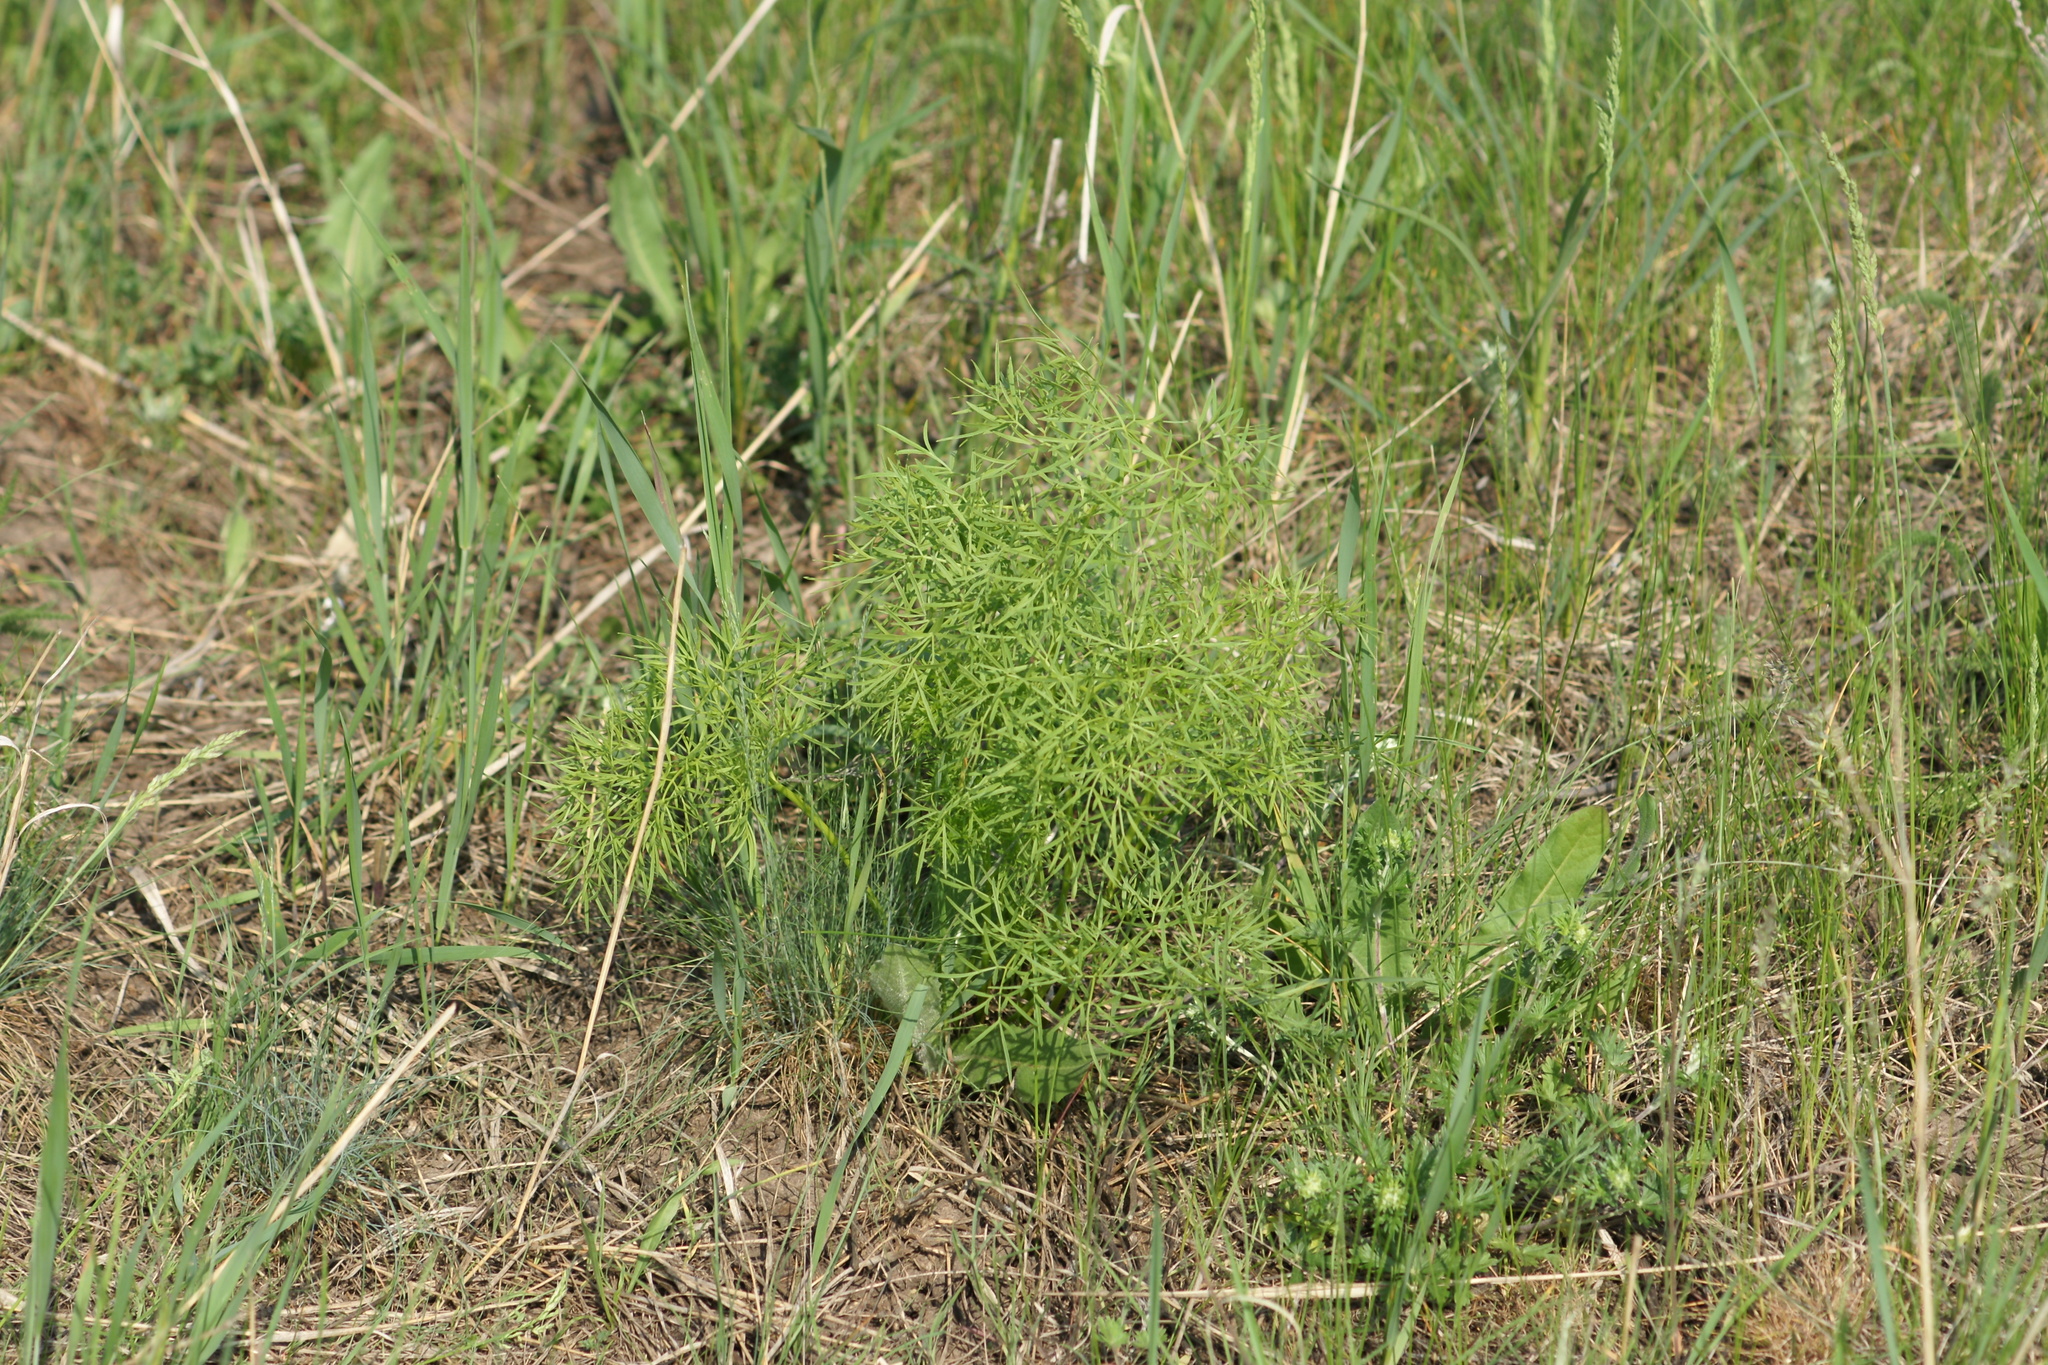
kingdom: Plantae
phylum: Tracheophyta
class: Magnoliopsida
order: Saxifragales
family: Paeoniaceae
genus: Paeonia
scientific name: Paeonia tenuifolia
